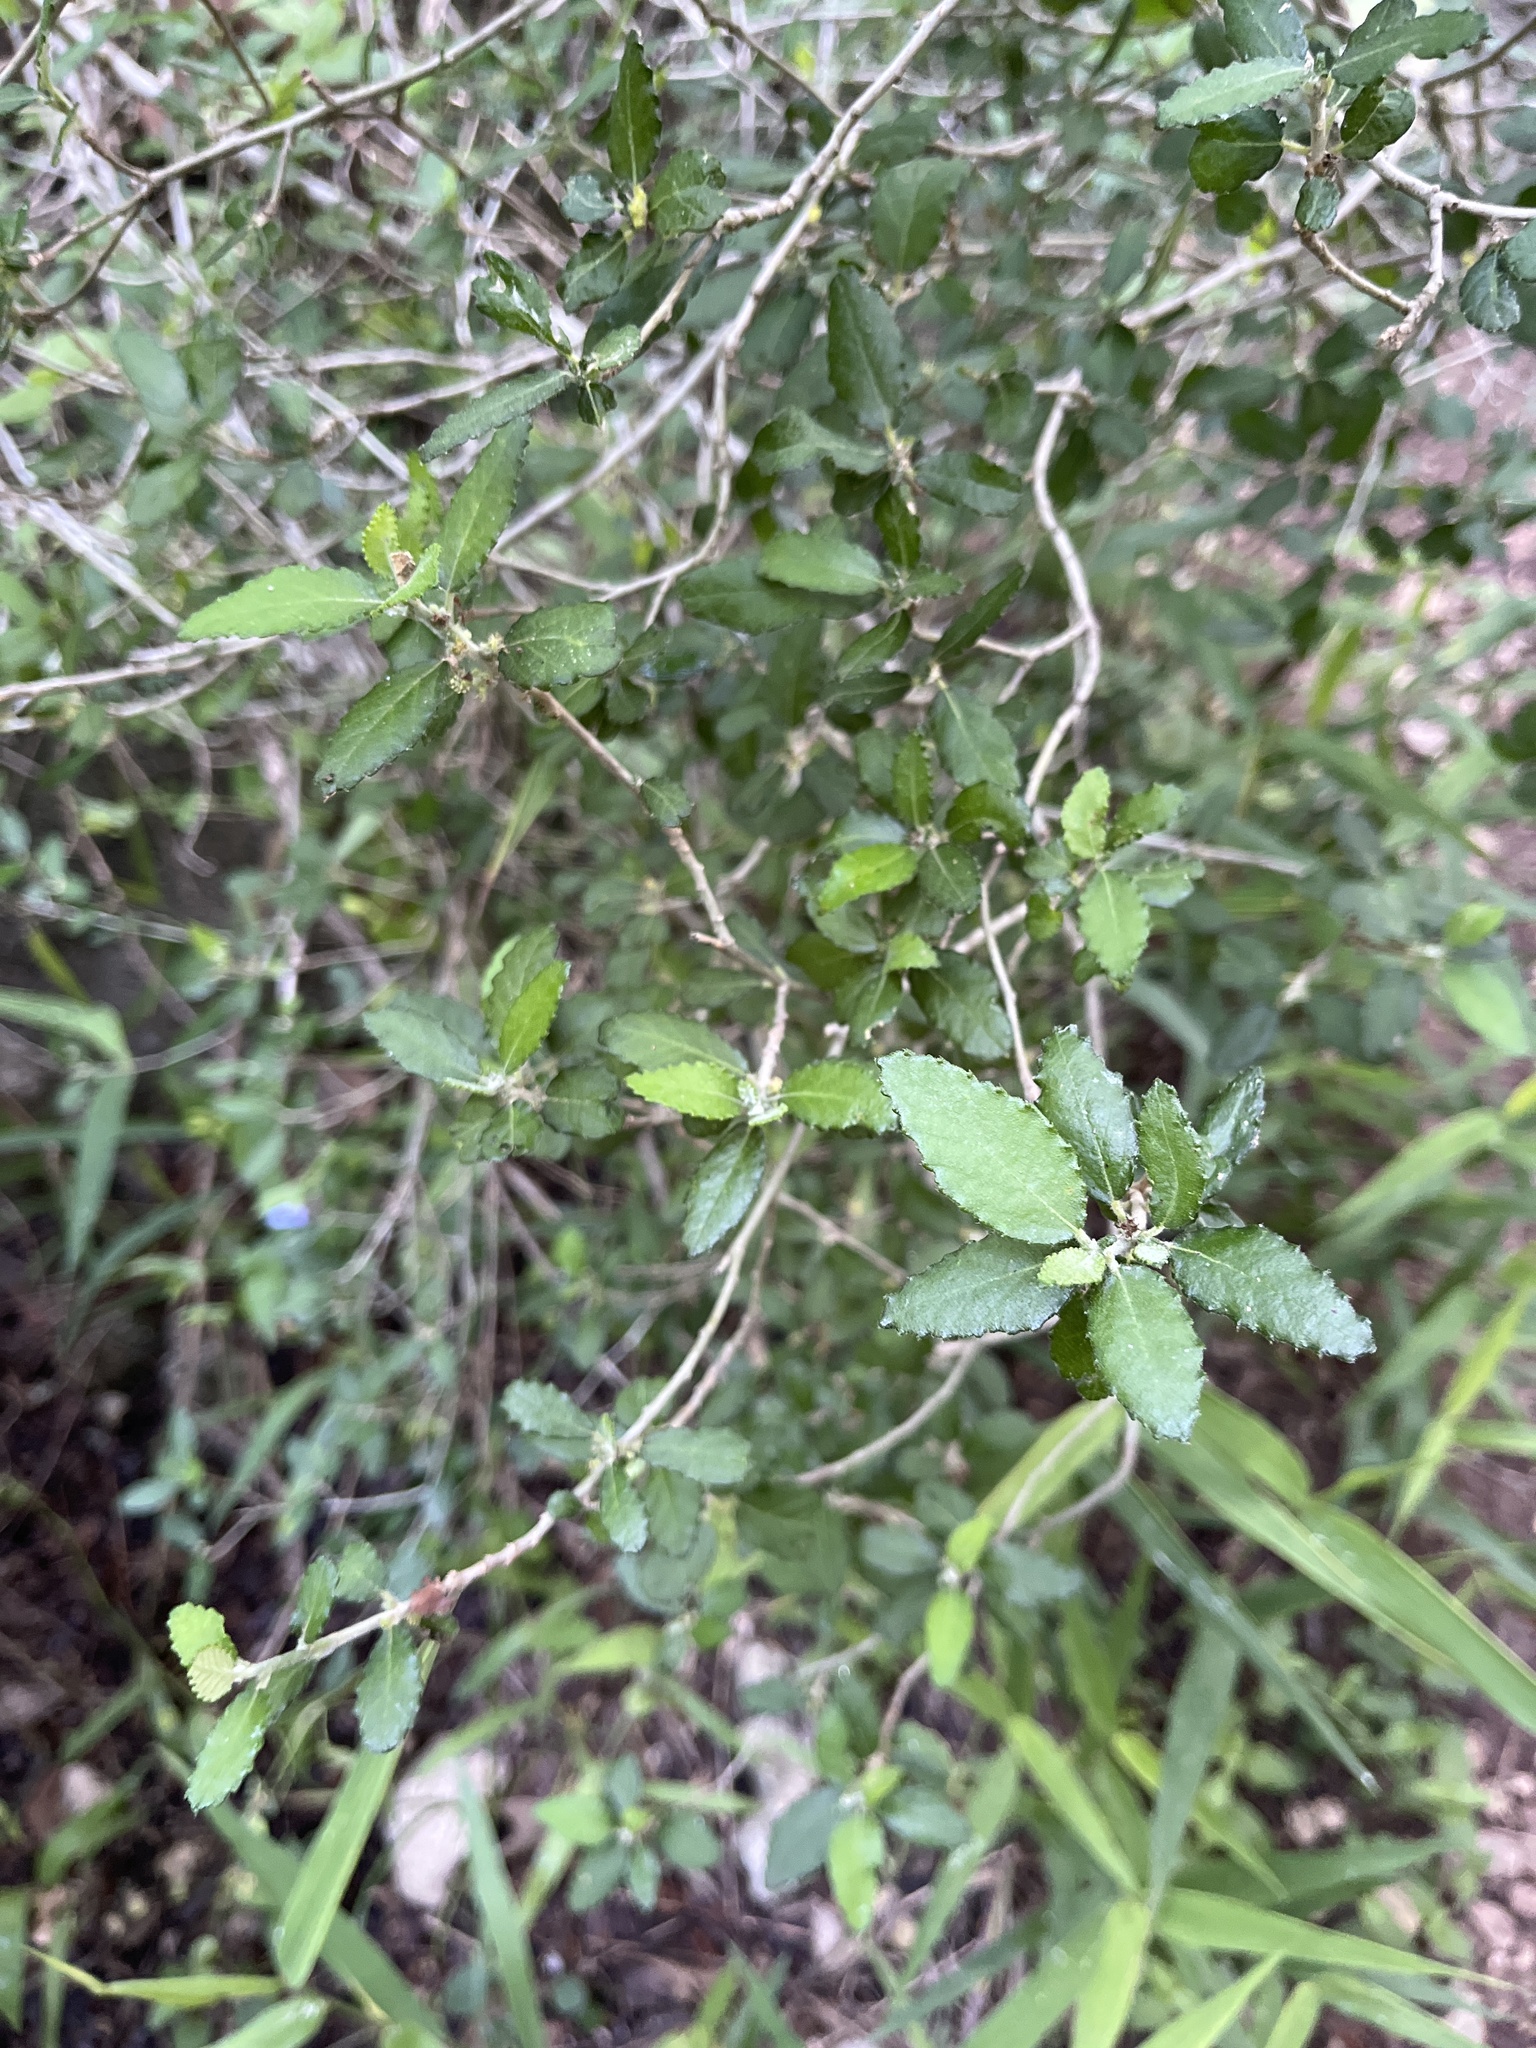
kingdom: Plantae
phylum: Tracheophyta
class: Magnoliopsida
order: Malpighiales
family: Euphorbiaceae
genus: Bernardia
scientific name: Bernardia myricifolia
